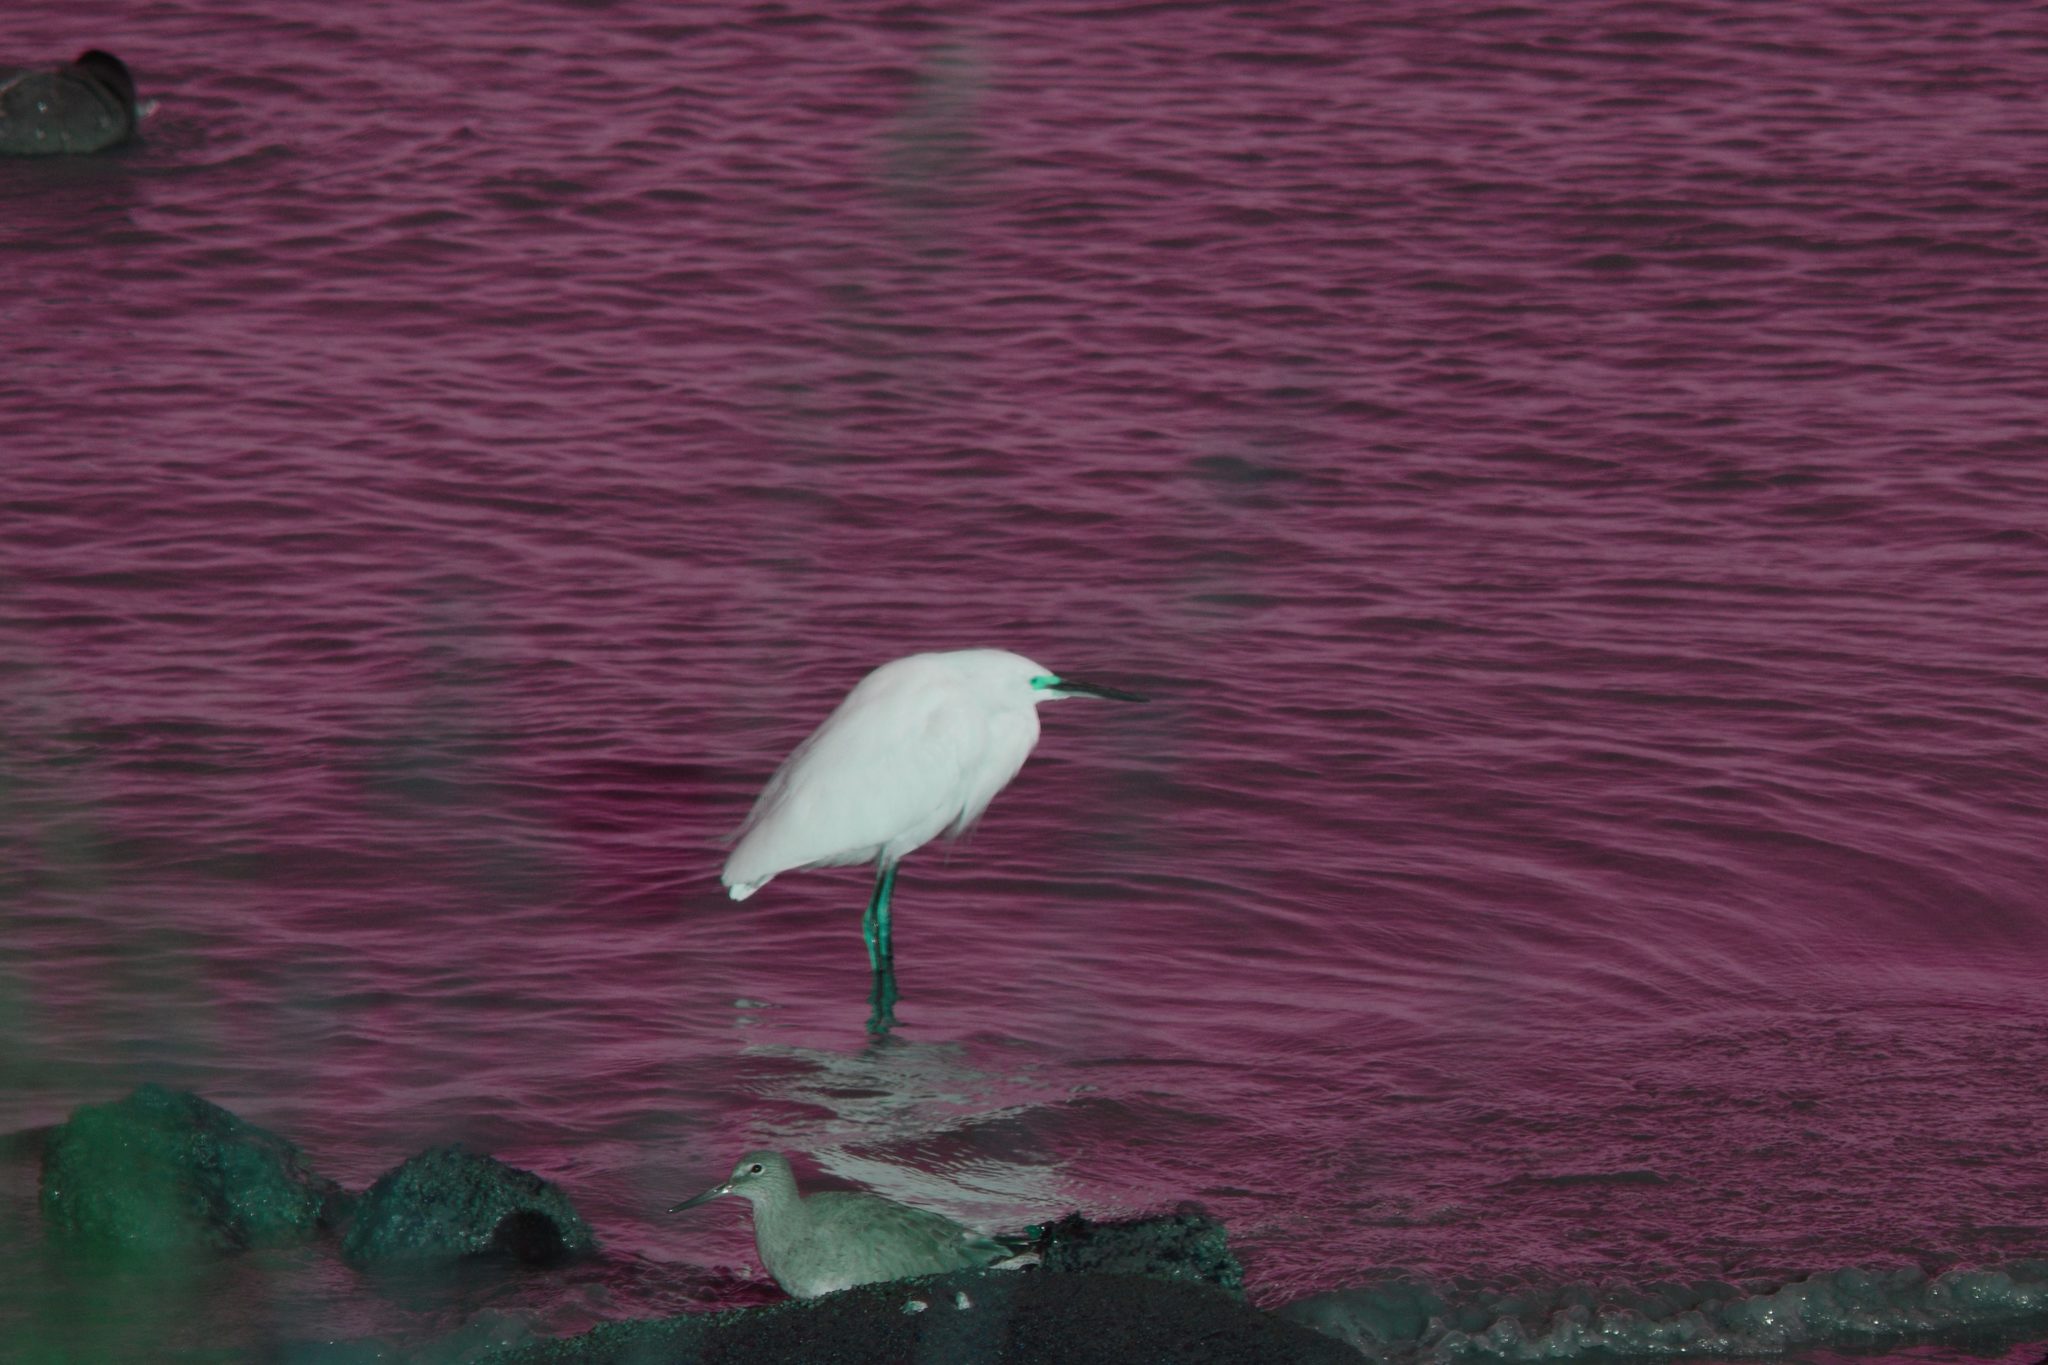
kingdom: Animalia
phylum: Chordata
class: Aves
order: Pelecaniformes
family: Ardeidae
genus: Egretta
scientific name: Egretta thula
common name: Snowy egret
